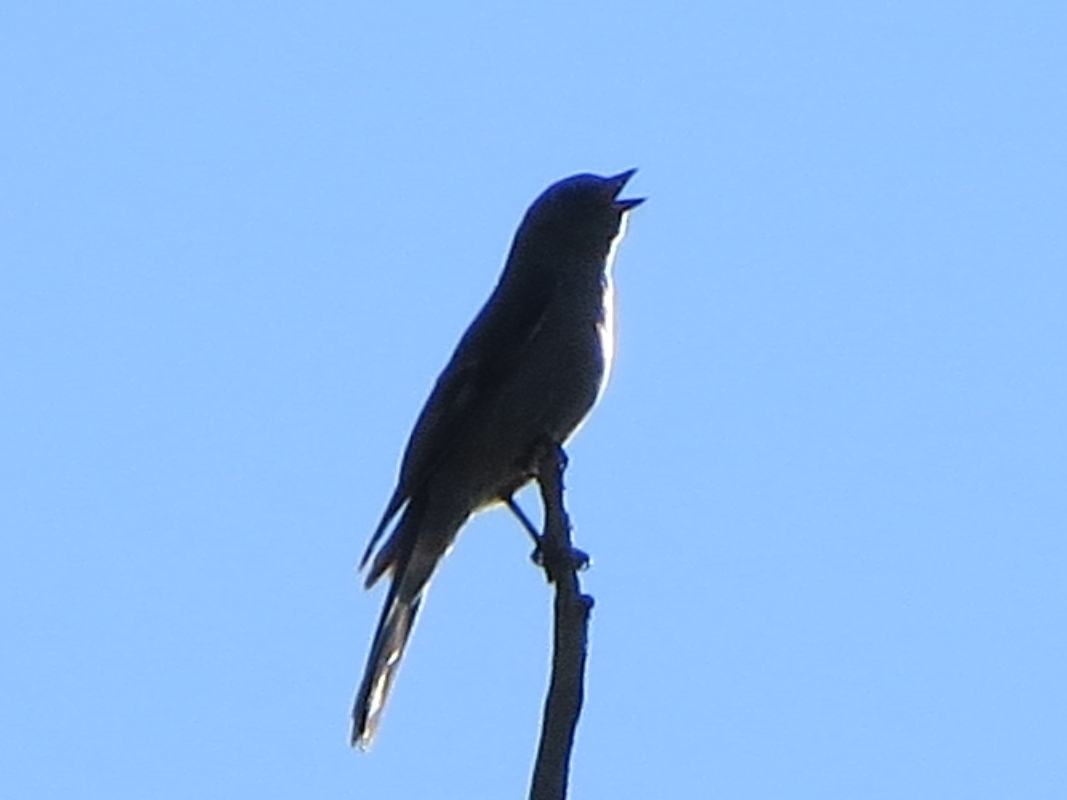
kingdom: Animalia
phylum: Chordata
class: Aves
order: Passeriformes
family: Turdidae
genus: Myadestes
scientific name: Myadestes townsendi
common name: Townsend's solitaire
